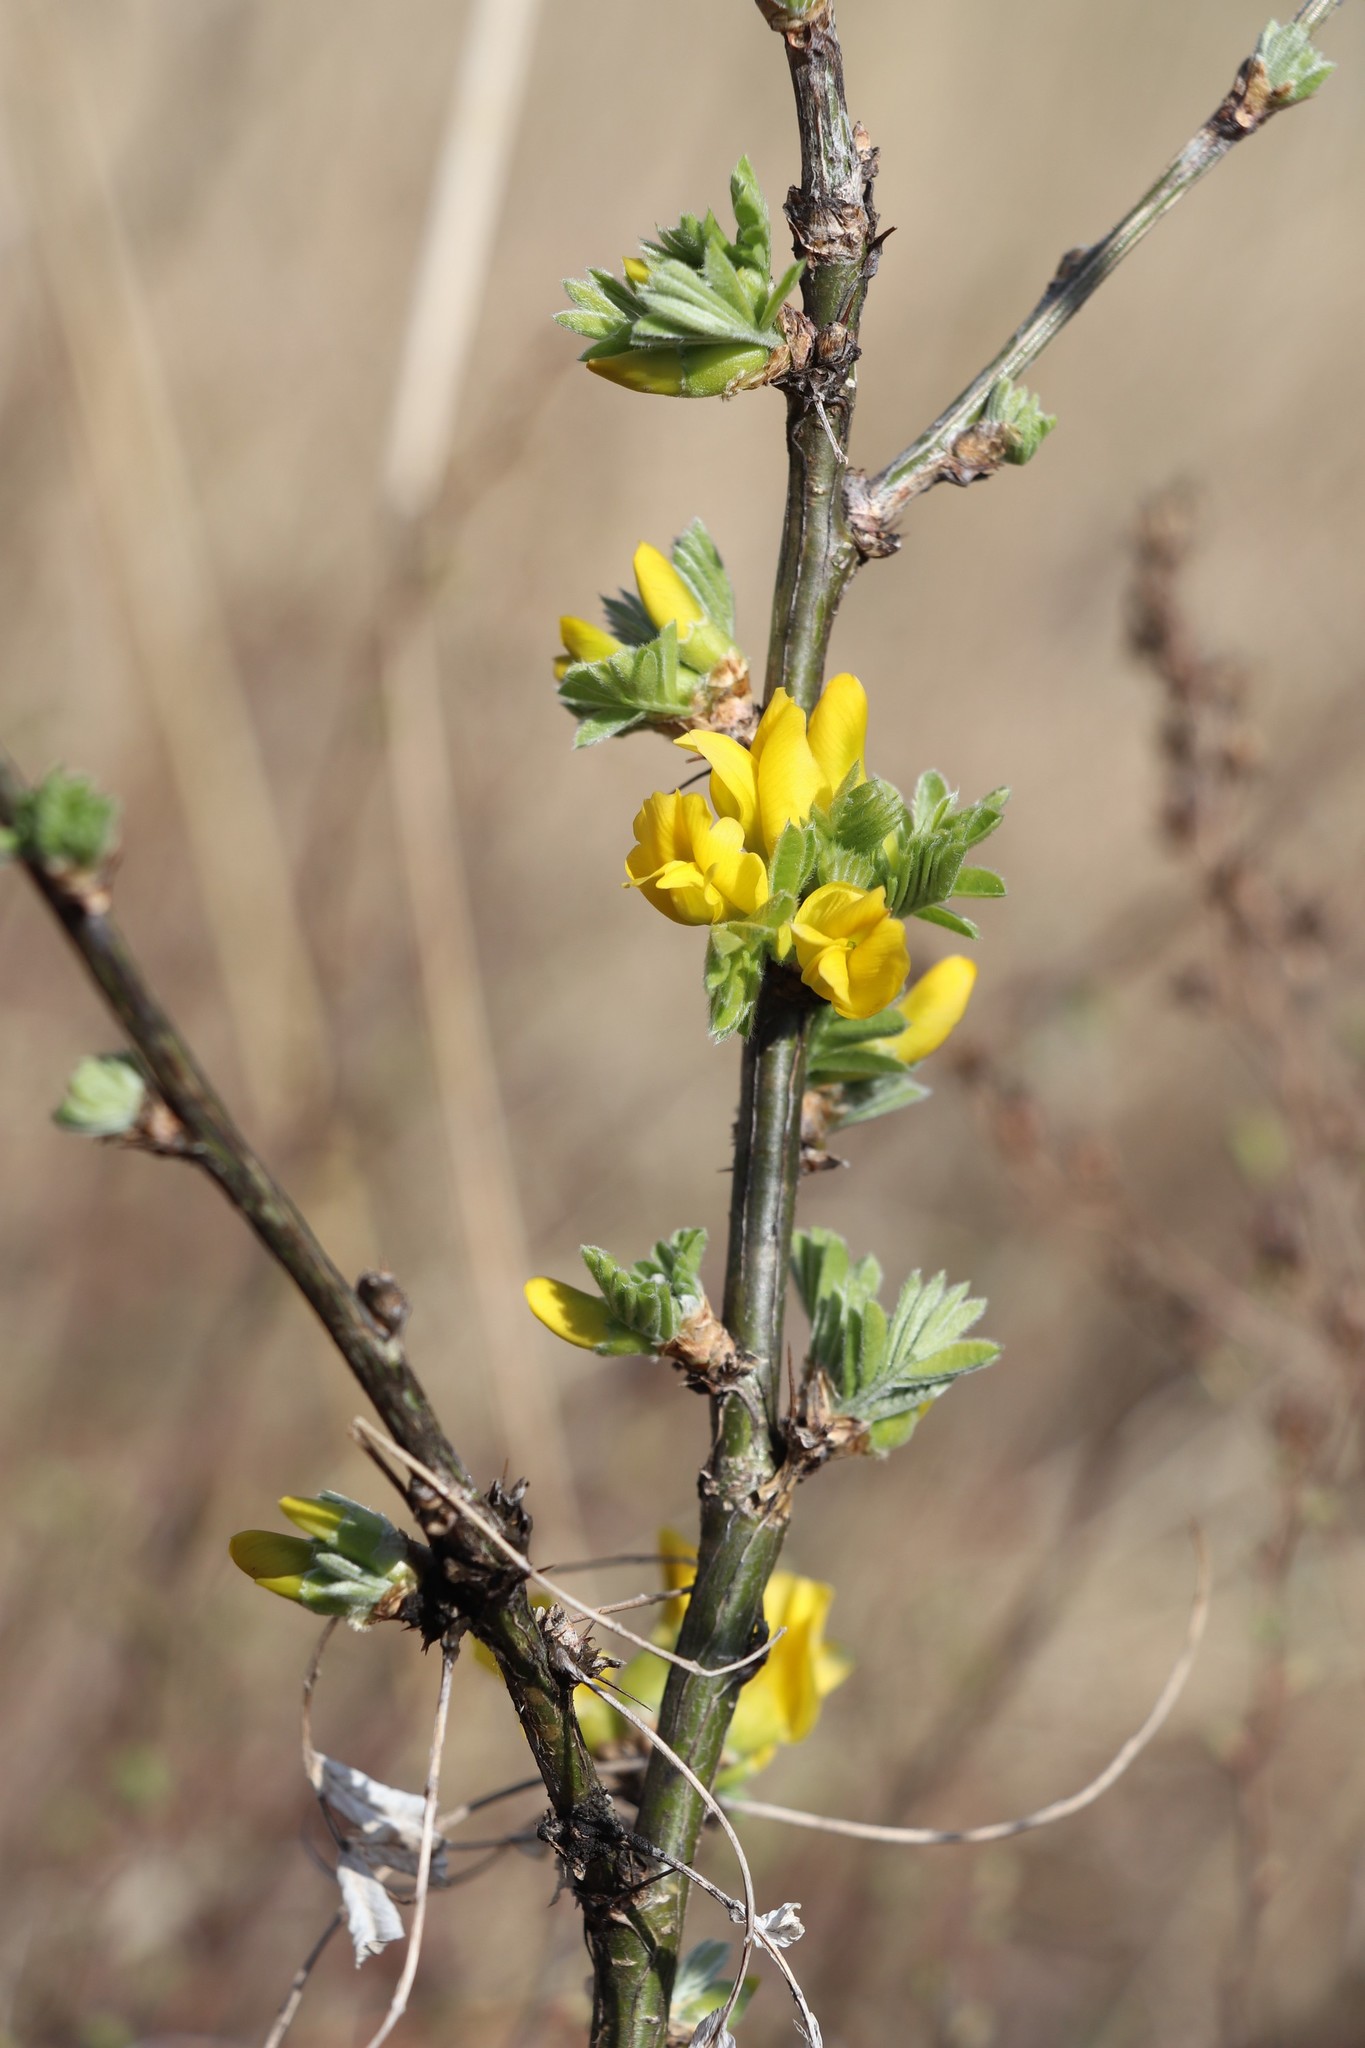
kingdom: Plantae
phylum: Tracheophyta
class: Magnoliopsida
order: Fabales
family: Fabaceae
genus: Caragana
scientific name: Caragana arborescens
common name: Siberian peashrub
